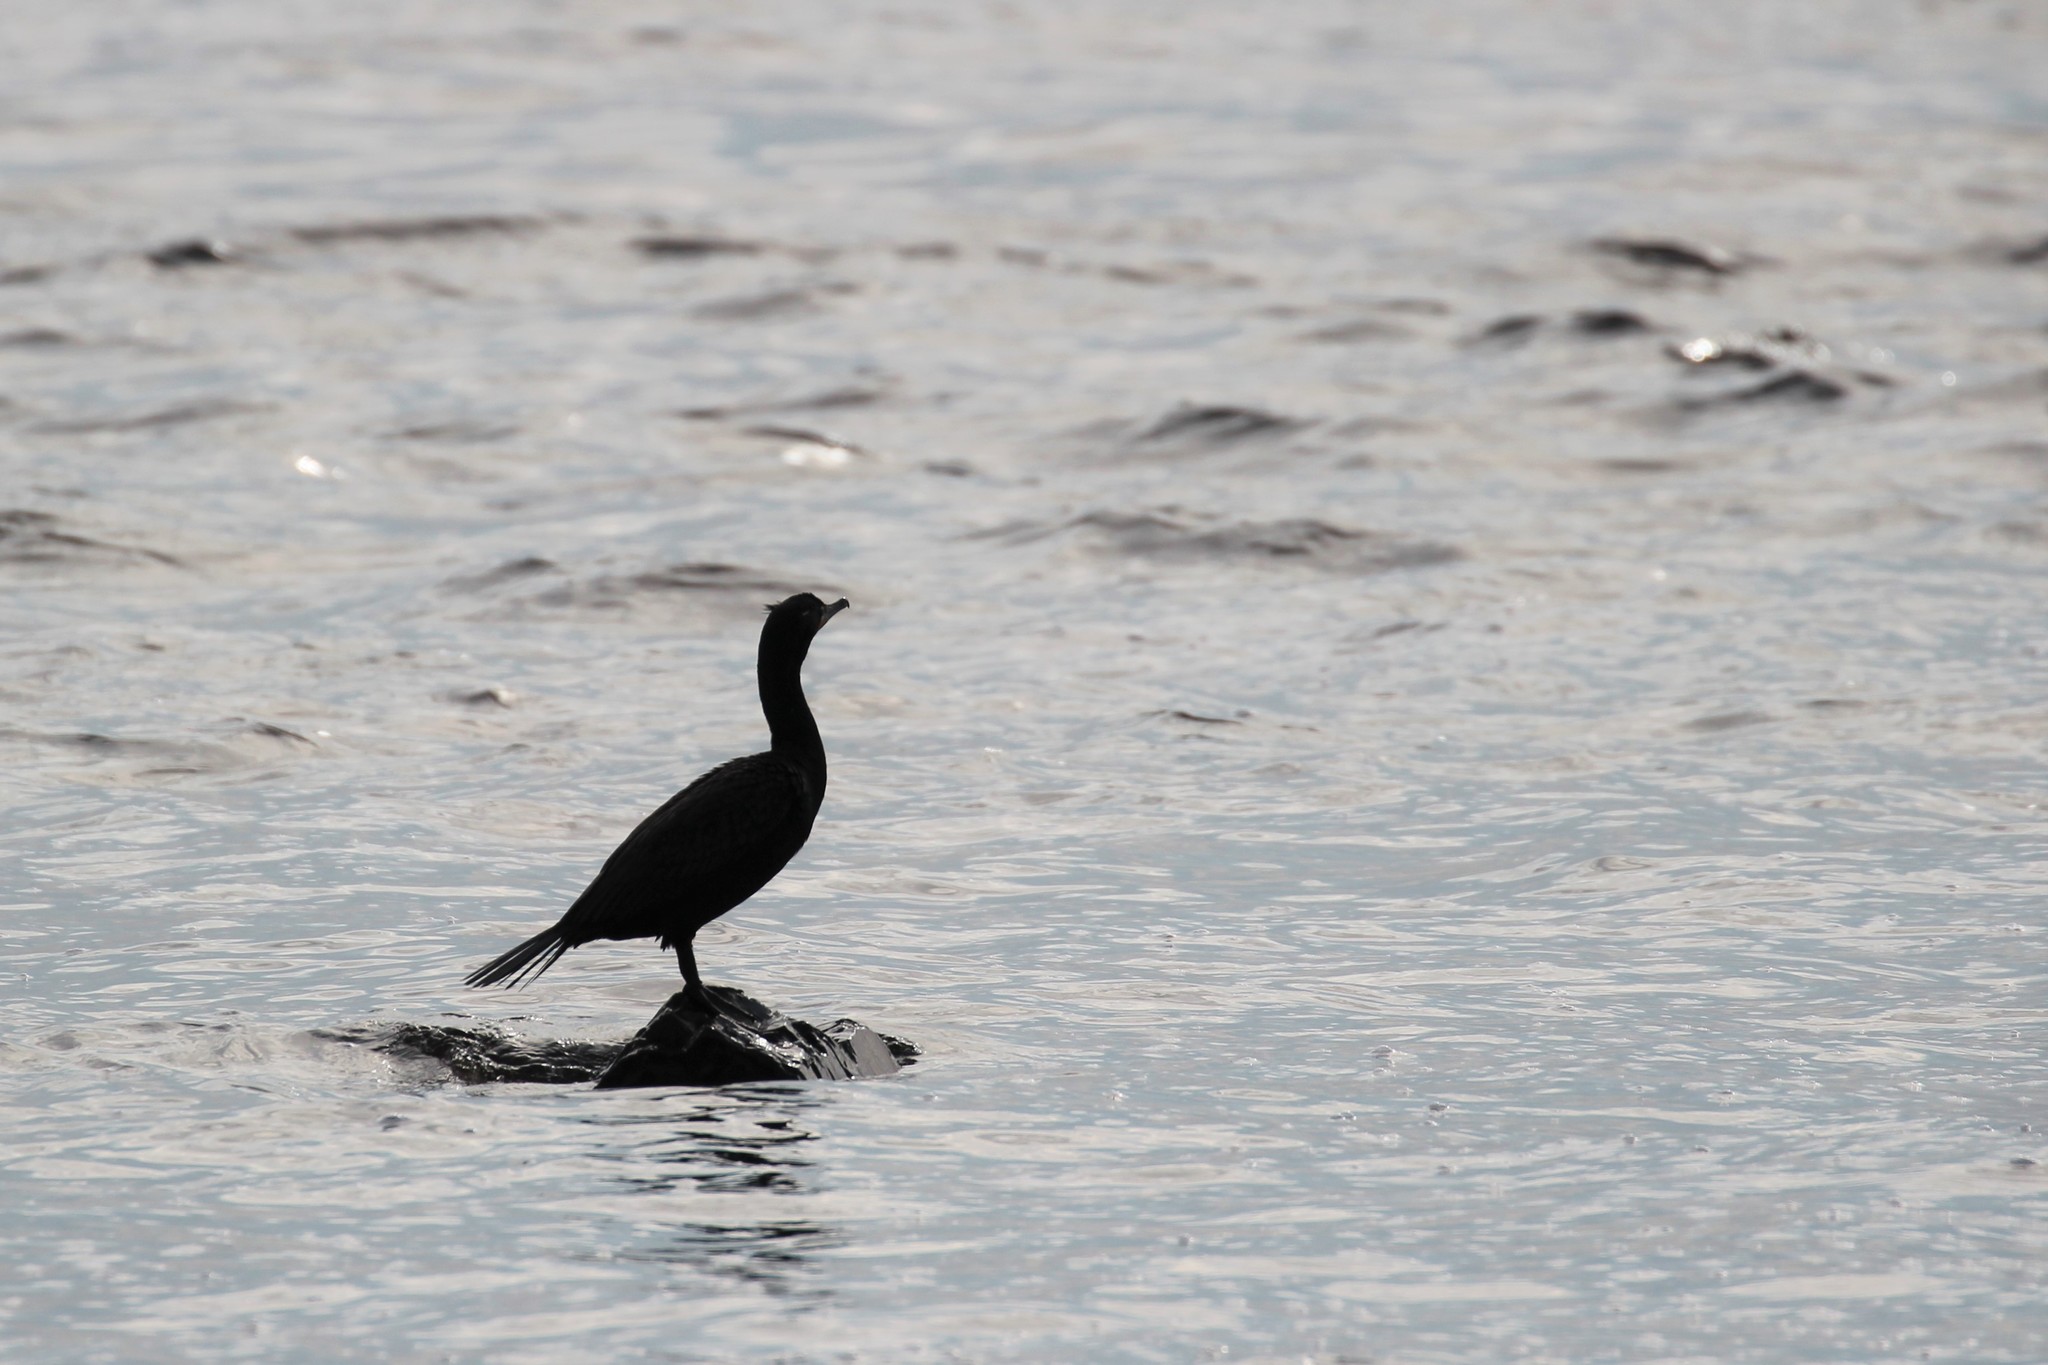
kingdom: Animalia
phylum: Chordata
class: Aves
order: Suliformes
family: Phalacrocoracidae
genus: Phalacrocorax
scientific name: Phalacrocorax auritus
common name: Double-crested cormorant
